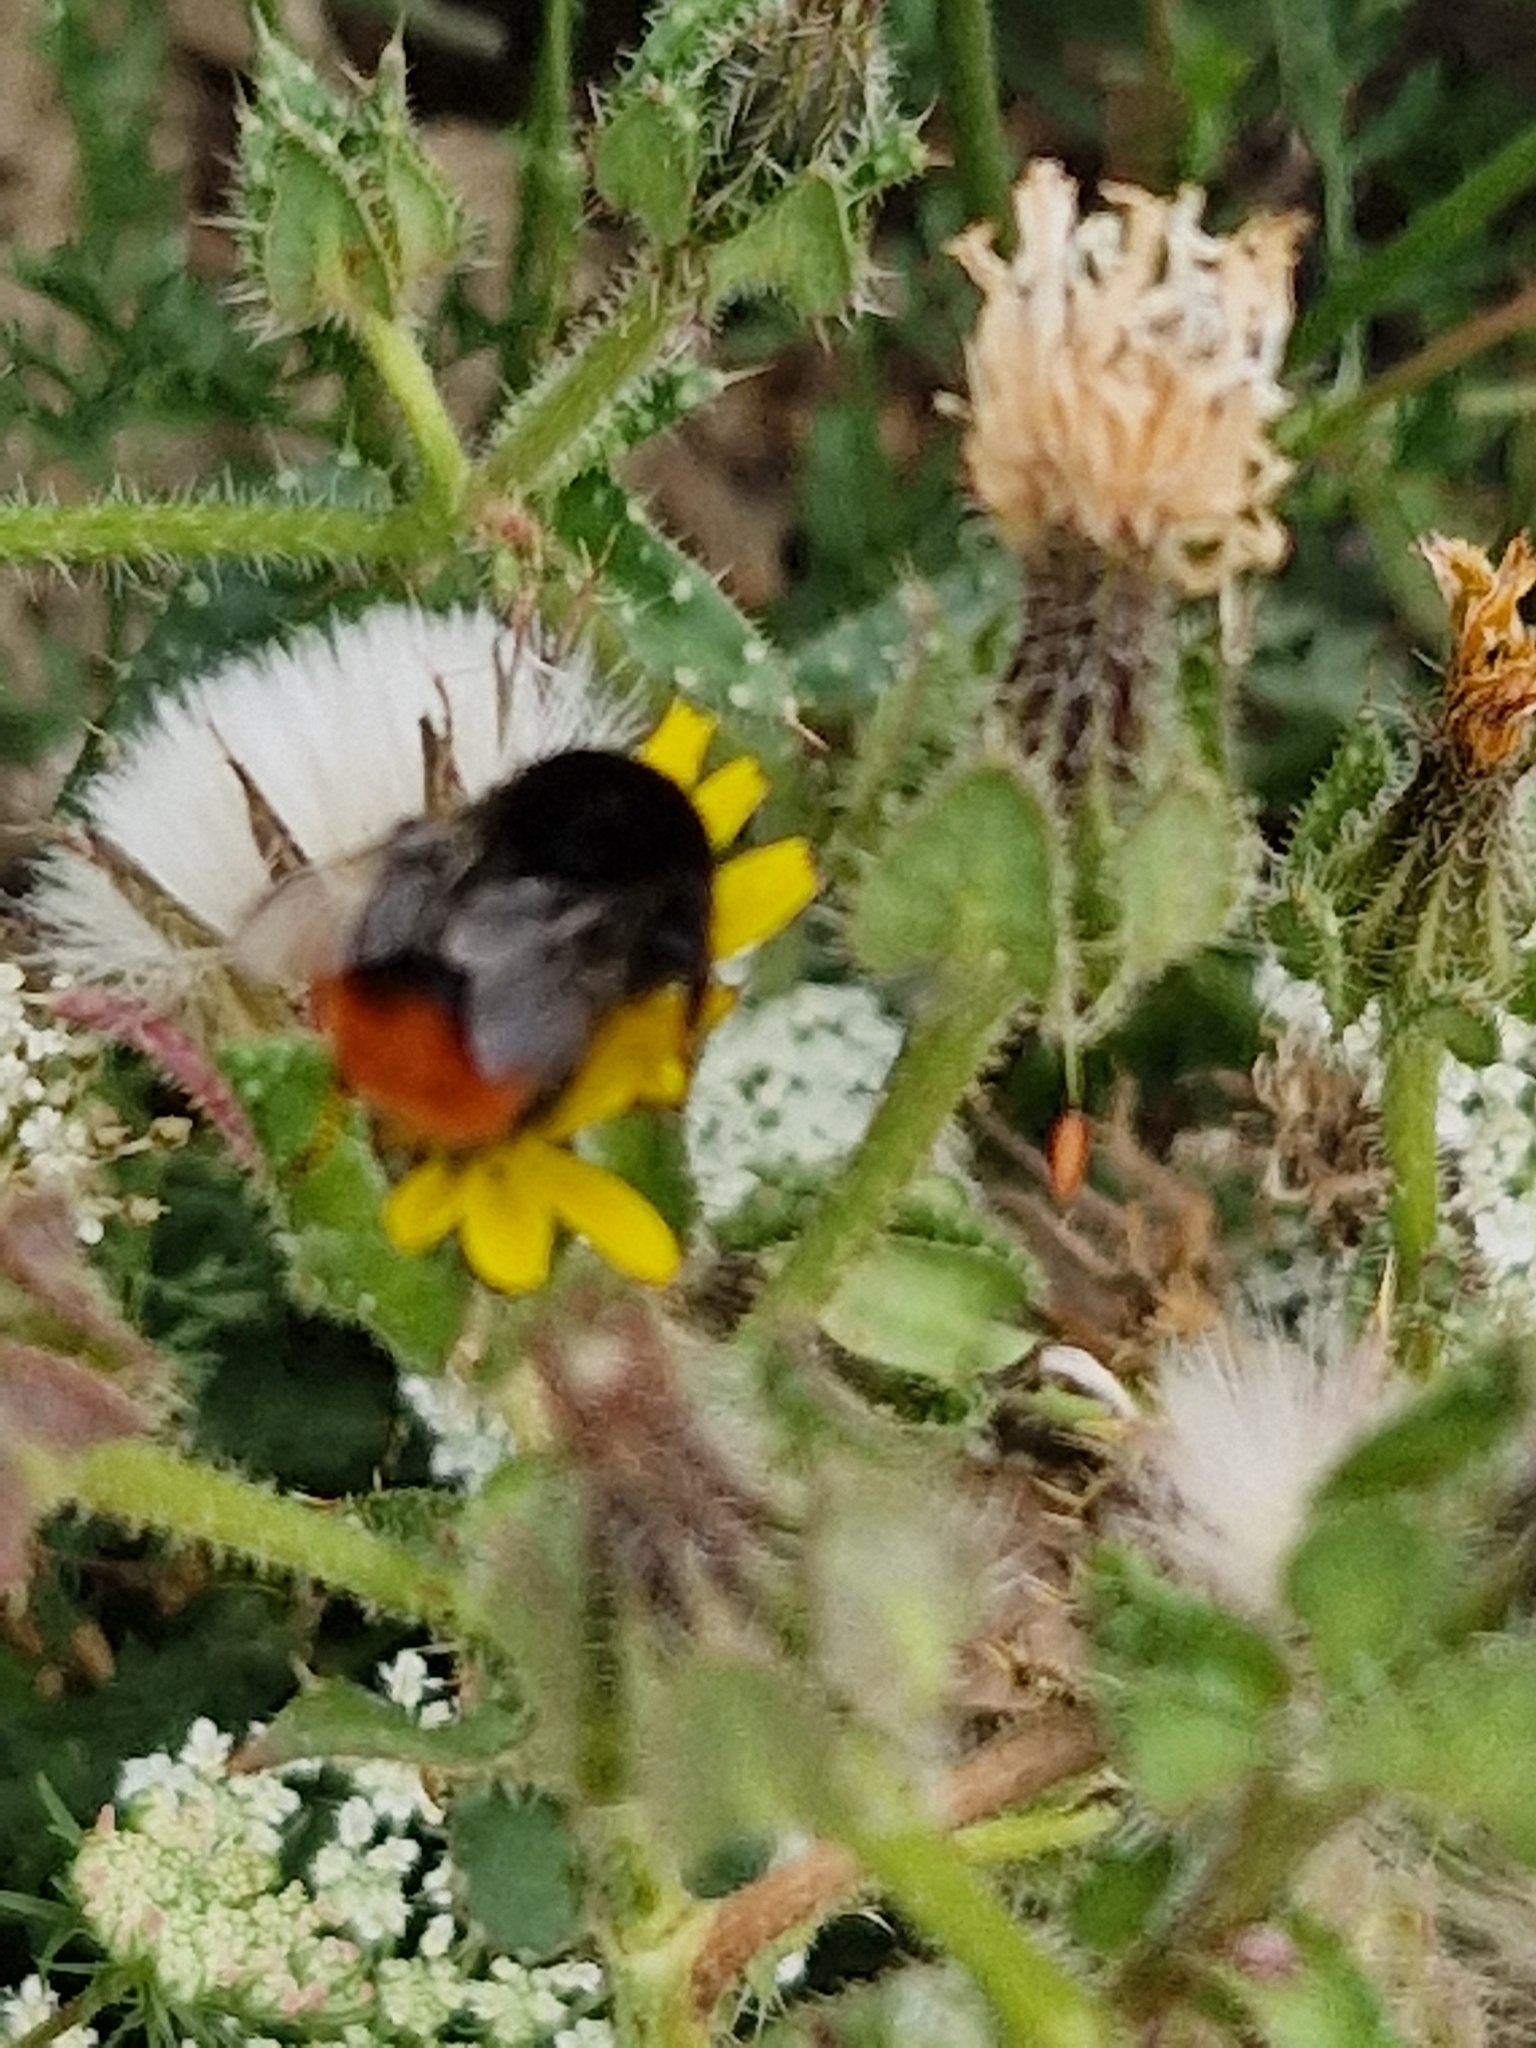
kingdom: Animalia
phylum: Arthropoda
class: Insecta
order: Hymenoptera
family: Apidae
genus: Bombus
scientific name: Bombus lapidarius
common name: Large red-tailed humble-bee
